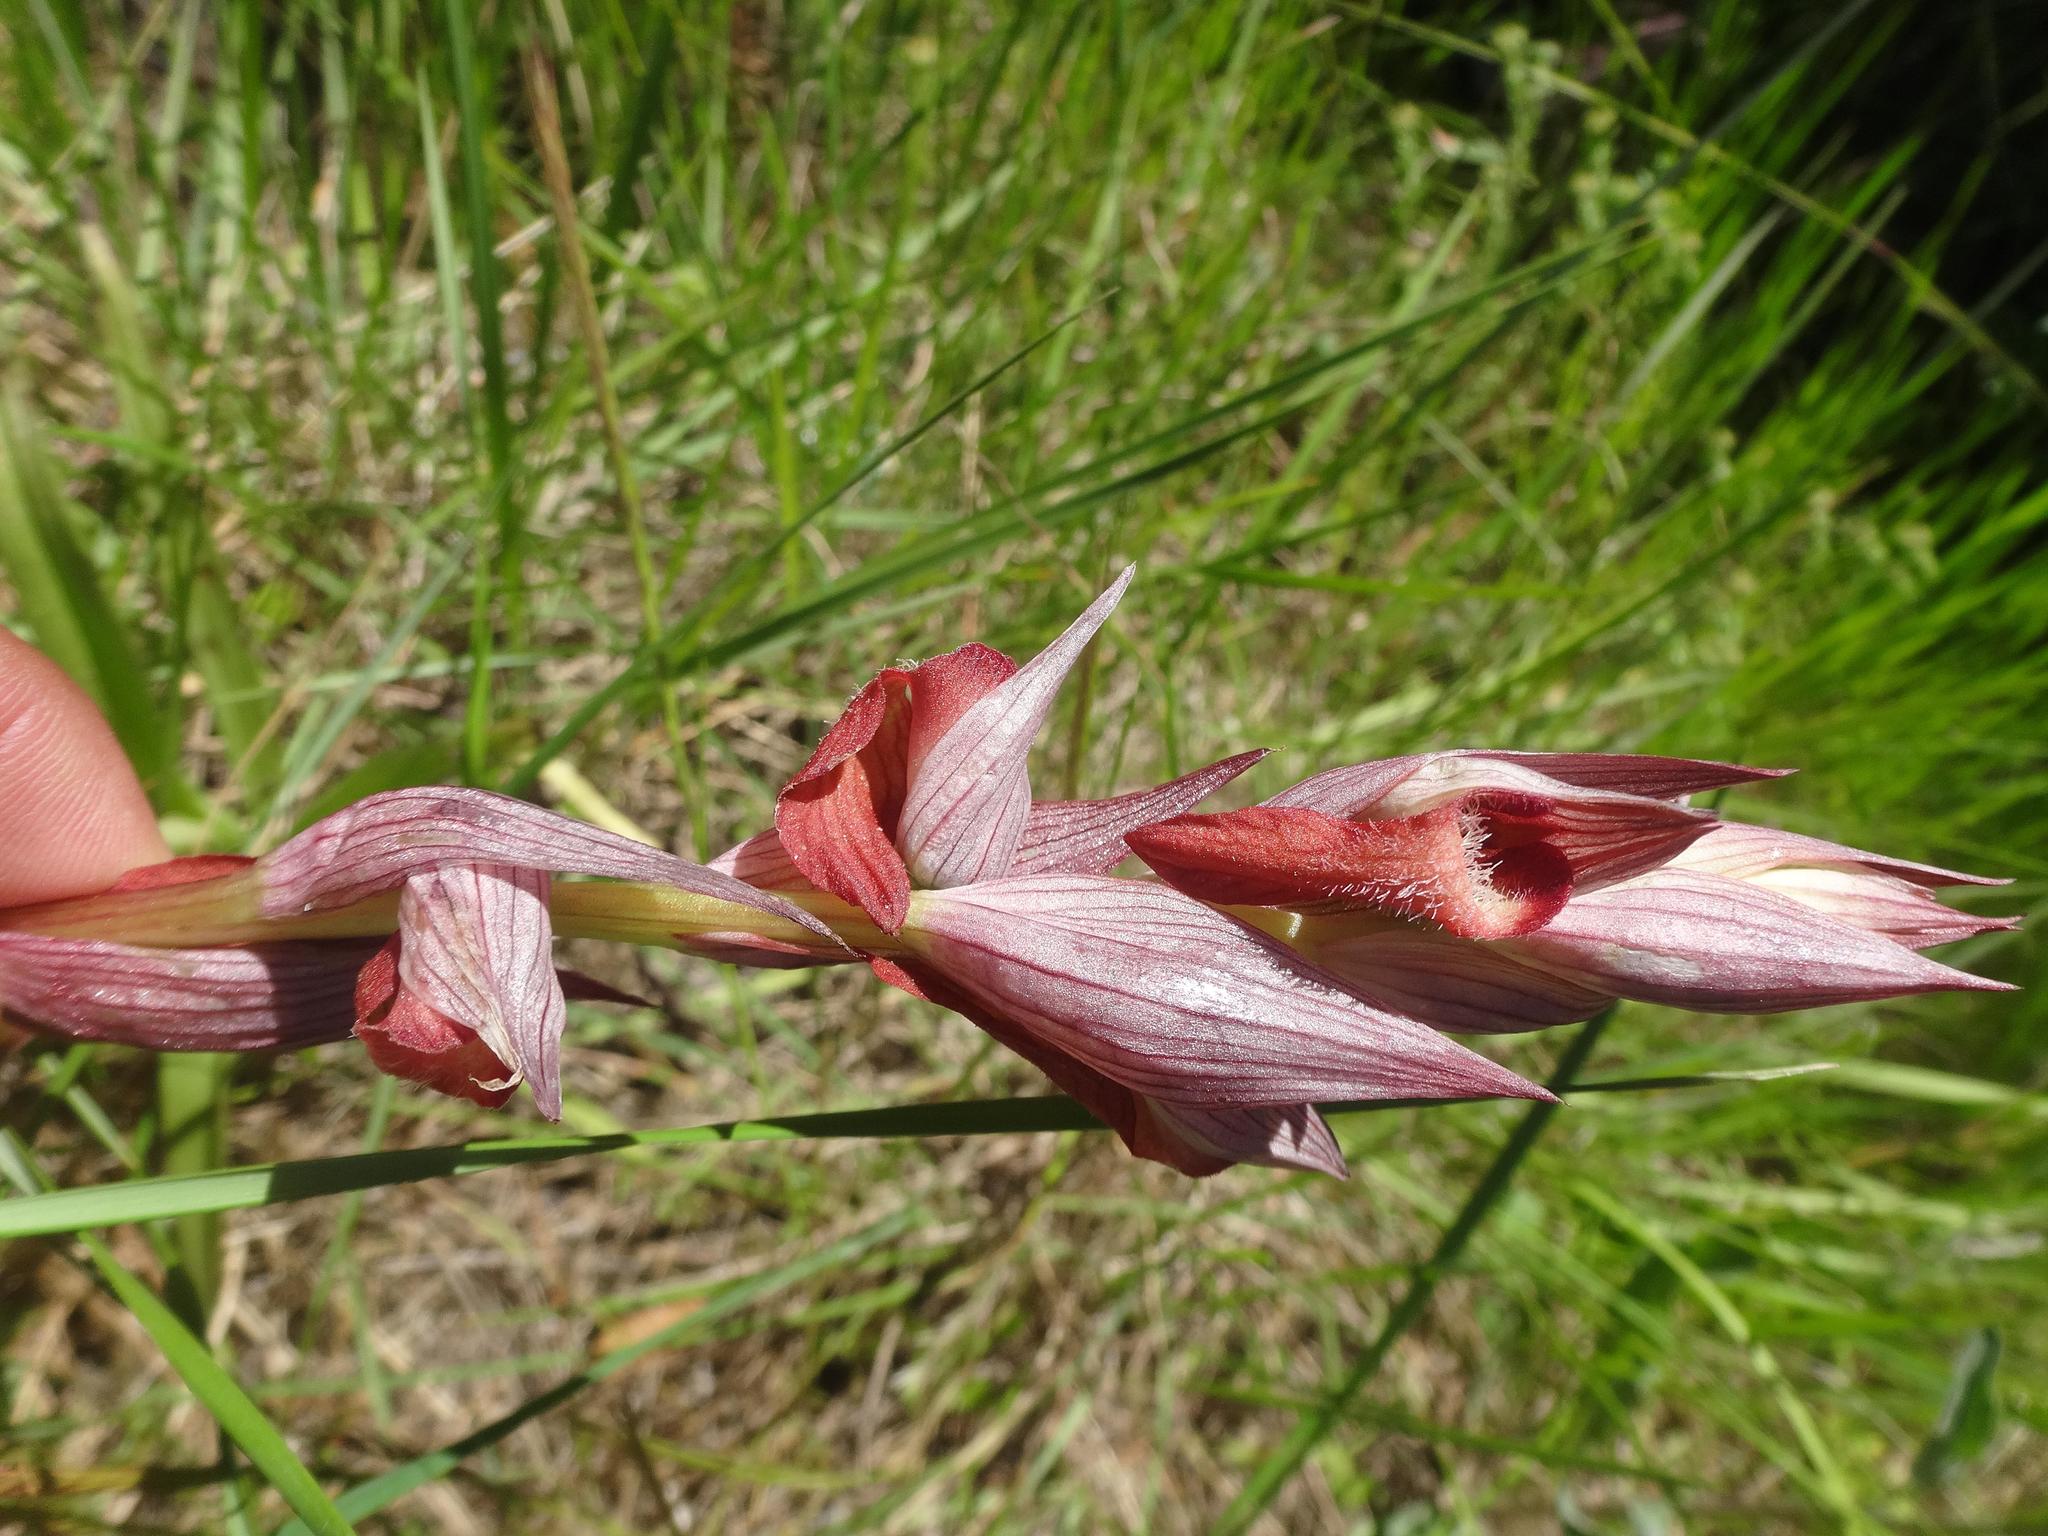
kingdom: Plantae
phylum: Tracheophyta
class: Liliopsida
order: Asparagales
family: Orchidaceae
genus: Serapias
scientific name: Serapias vomeracea
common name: Long-lipped tongue-orchid
